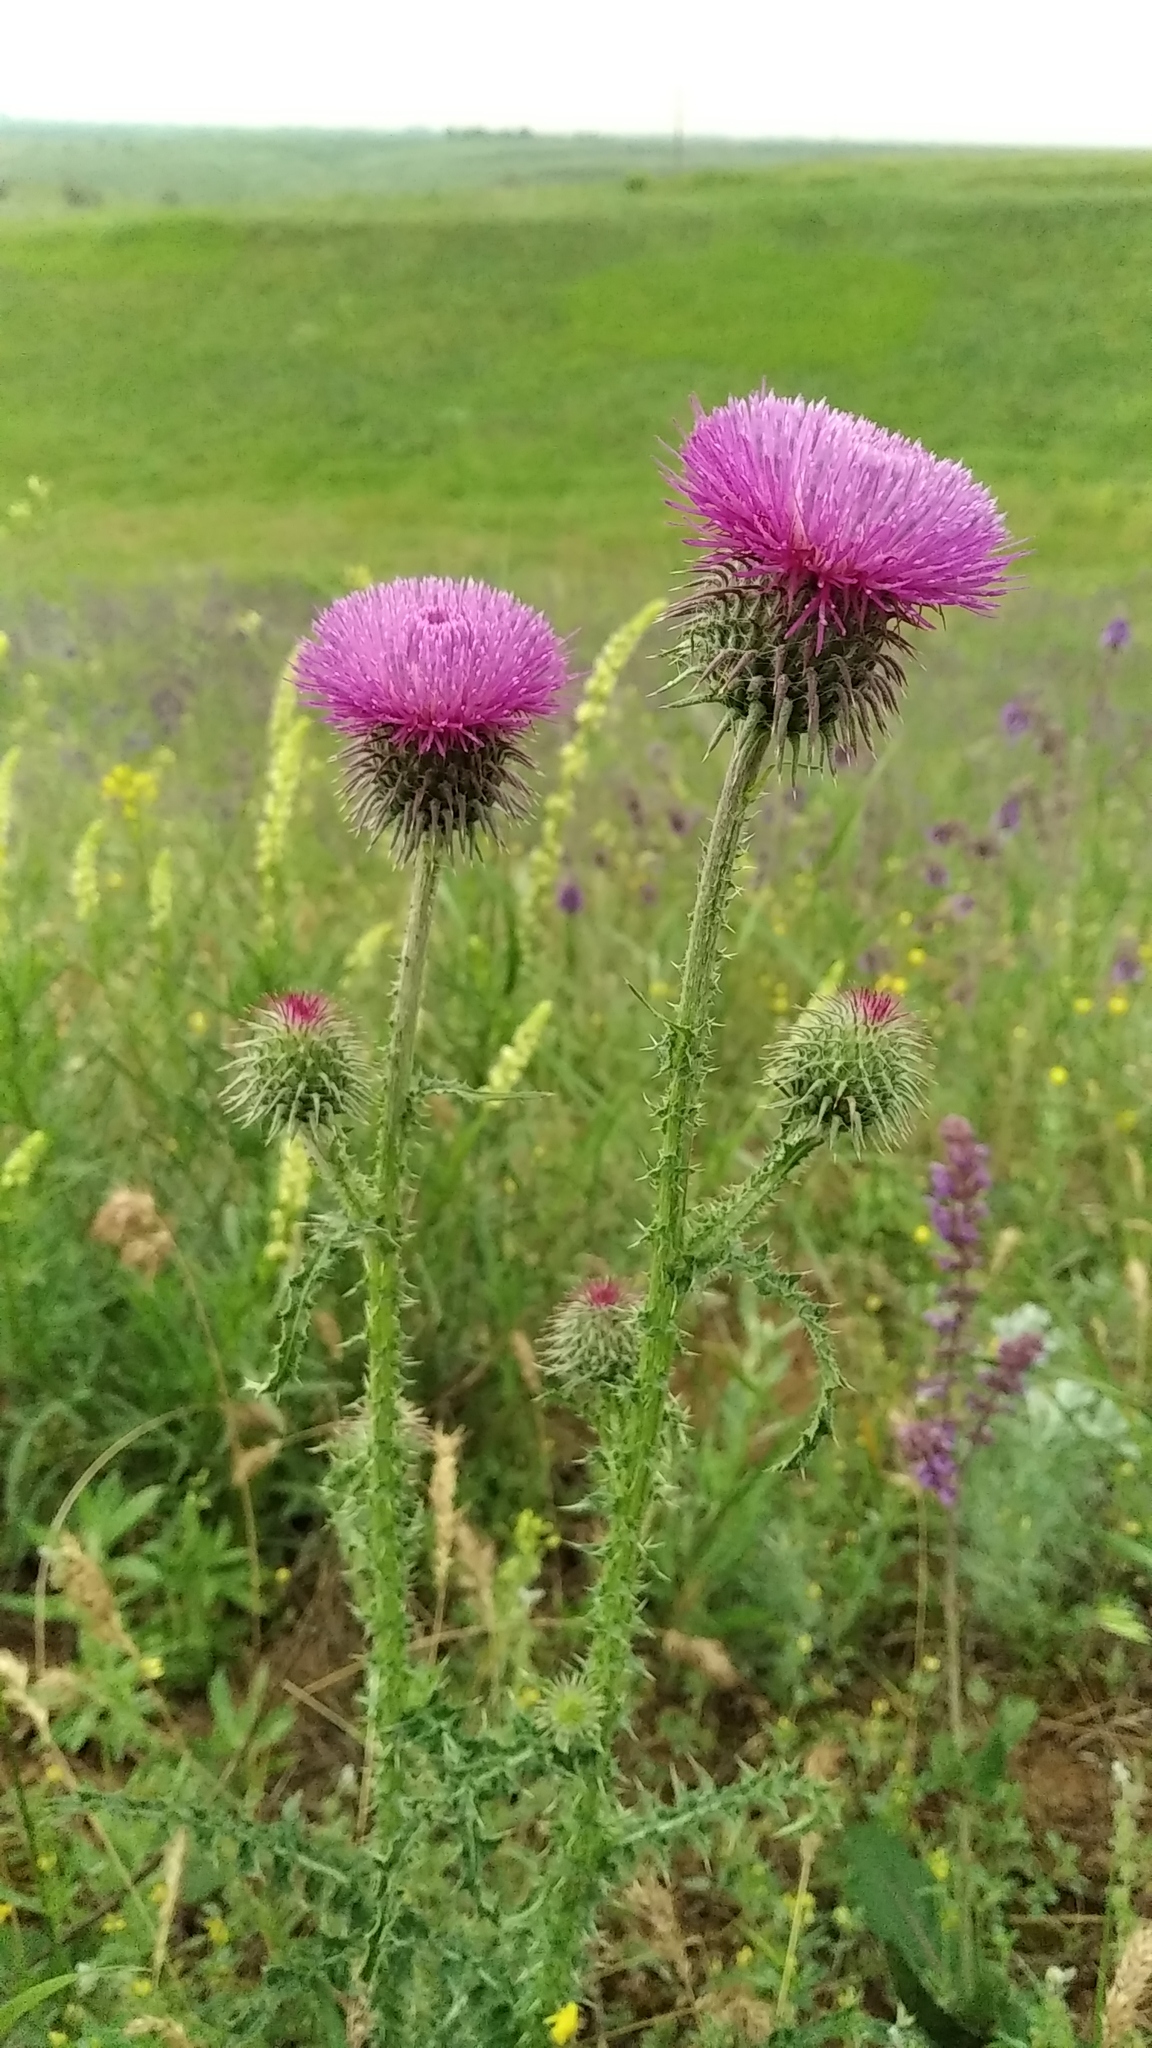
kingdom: Plantae
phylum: Tracheophyta
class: Magnoliopsida
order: Asterales
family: Asteraceae
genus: Carduus
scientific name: Carduus uncinatus
